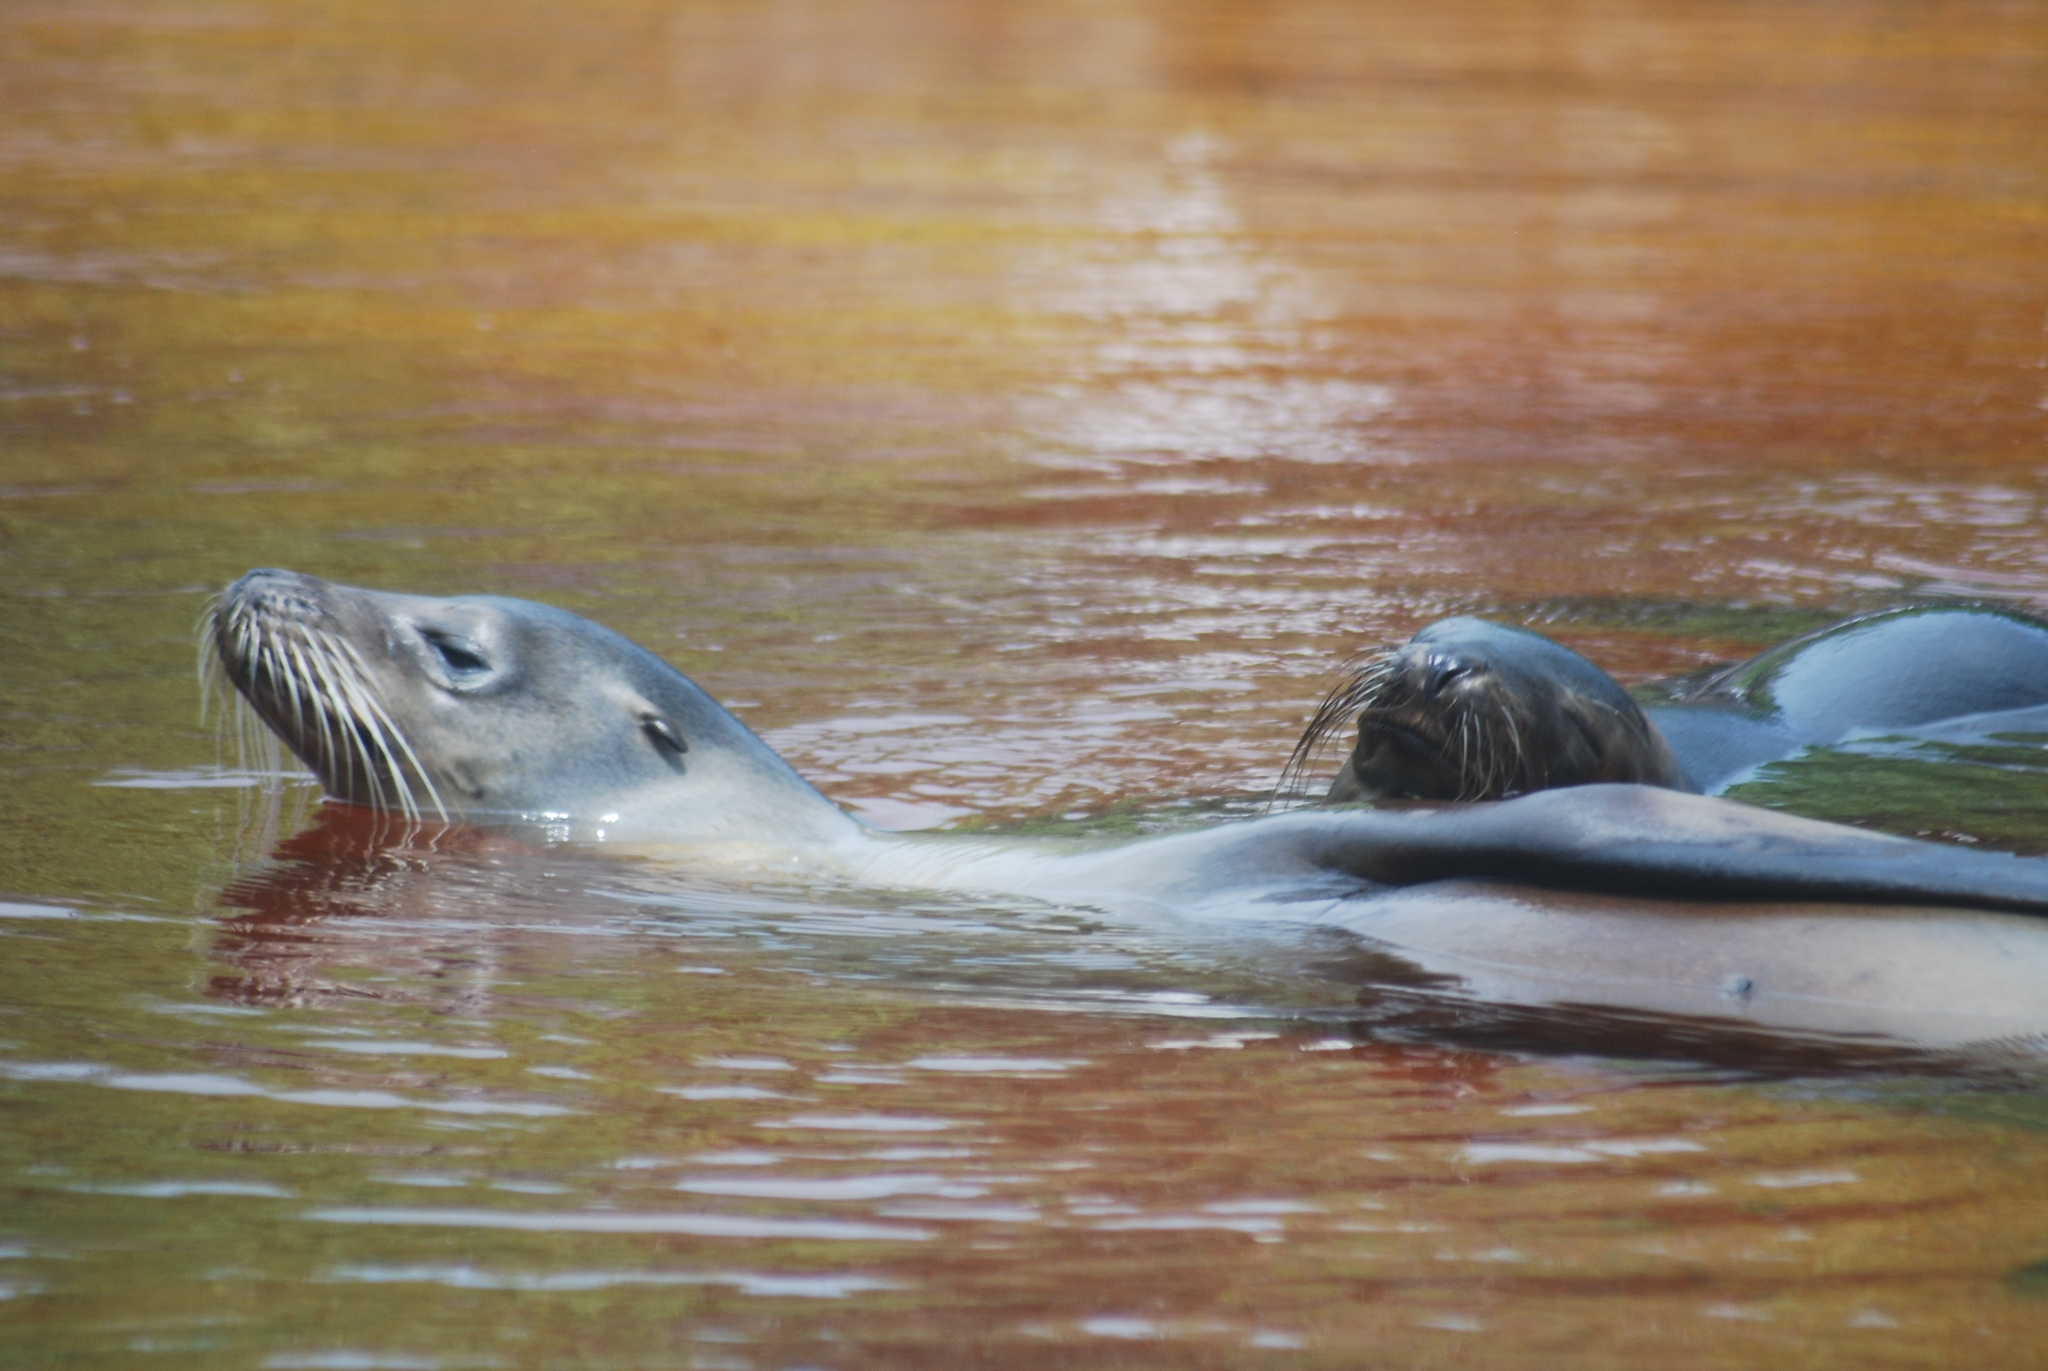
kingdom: Animalia
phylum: Chordata
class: Mammalia
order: Carnivora
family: Otariidae
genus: Zalophus
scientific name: Zalophus wollebaeki
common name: Galapagos sea lion
